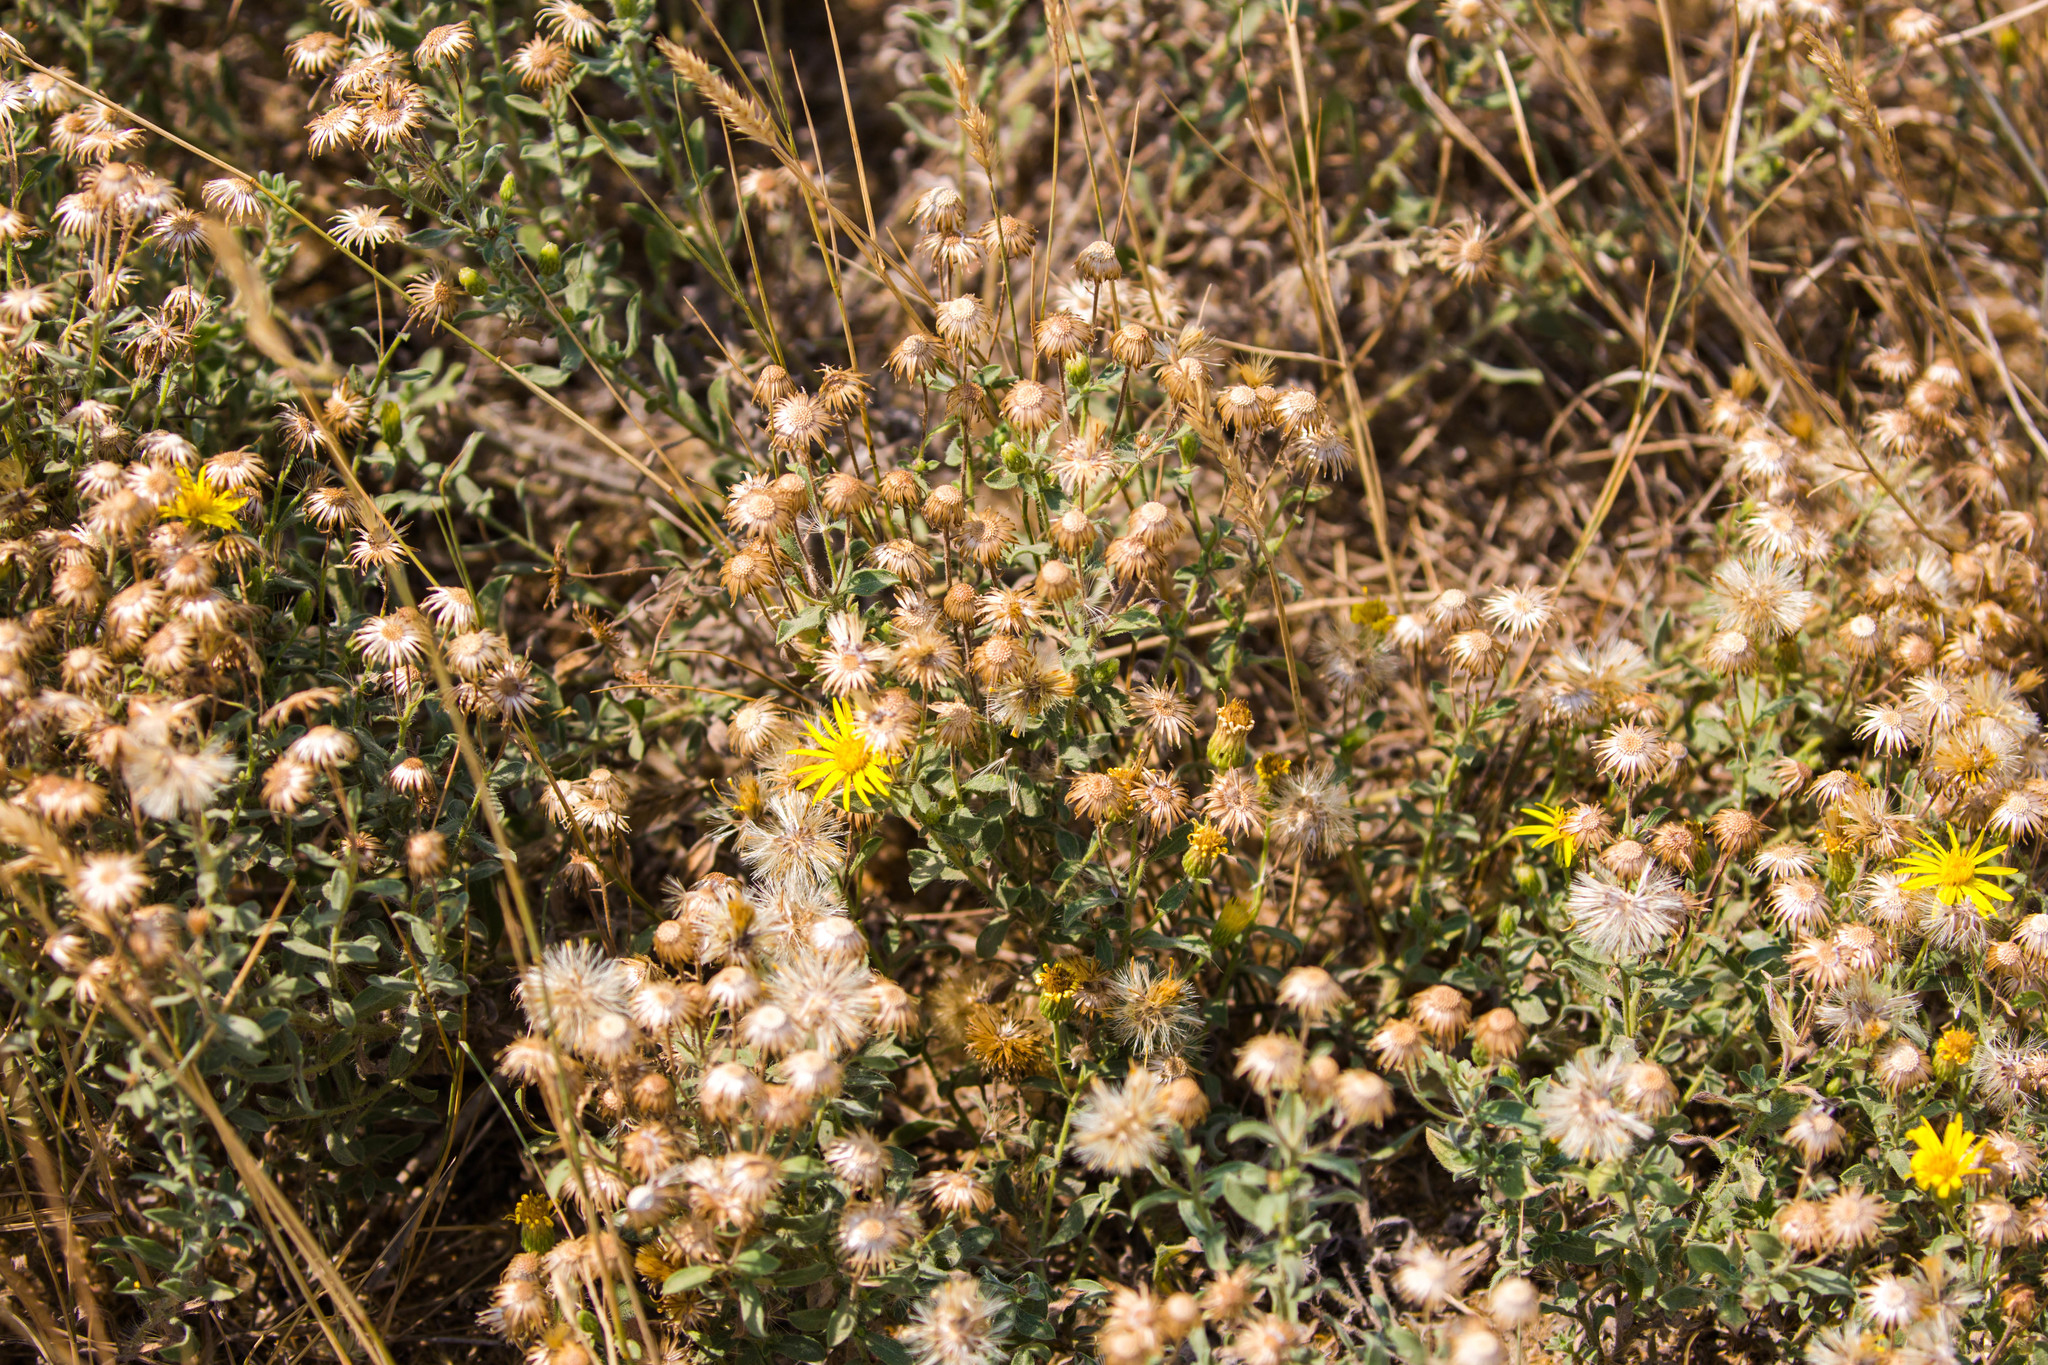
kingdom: Plantae
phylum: Tracheophyta
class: Magnoliopsida
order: Asterales
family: Asteraceae
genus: Heterotheca
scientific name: Heterotheca villosa
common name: Hairy false goldenaster
